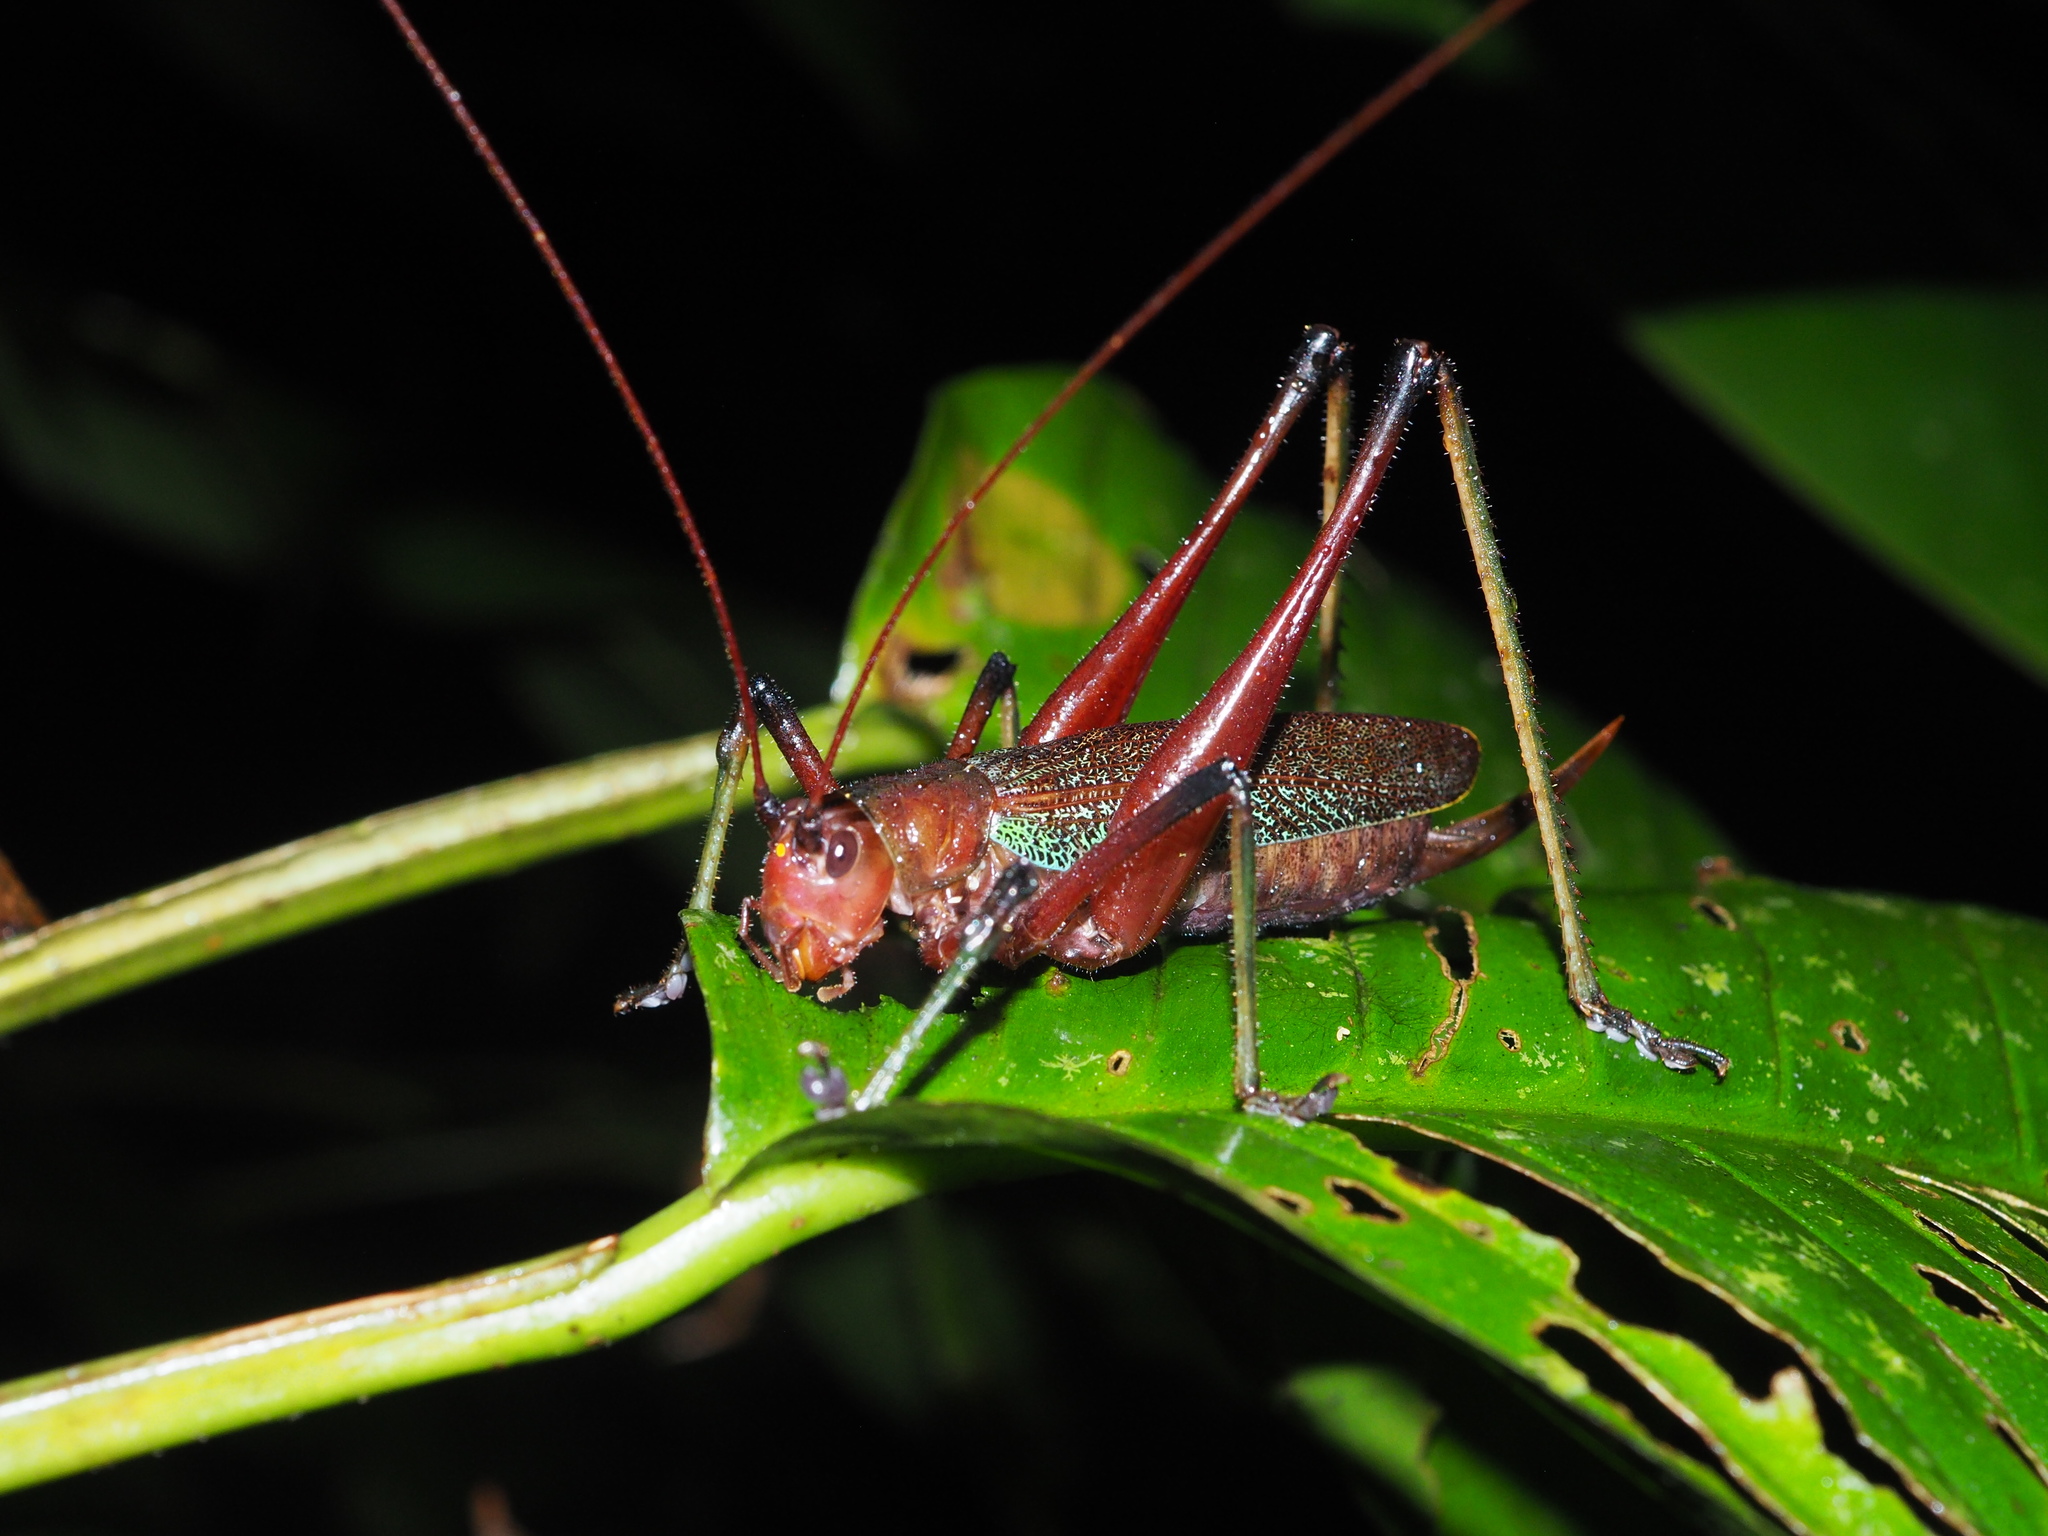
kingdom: Animalia
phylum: Arthropoda
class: Insecta
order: Orthoptera
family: Tettigoniidae
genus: Goethalsiella
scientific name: Goethalsiella tridens
